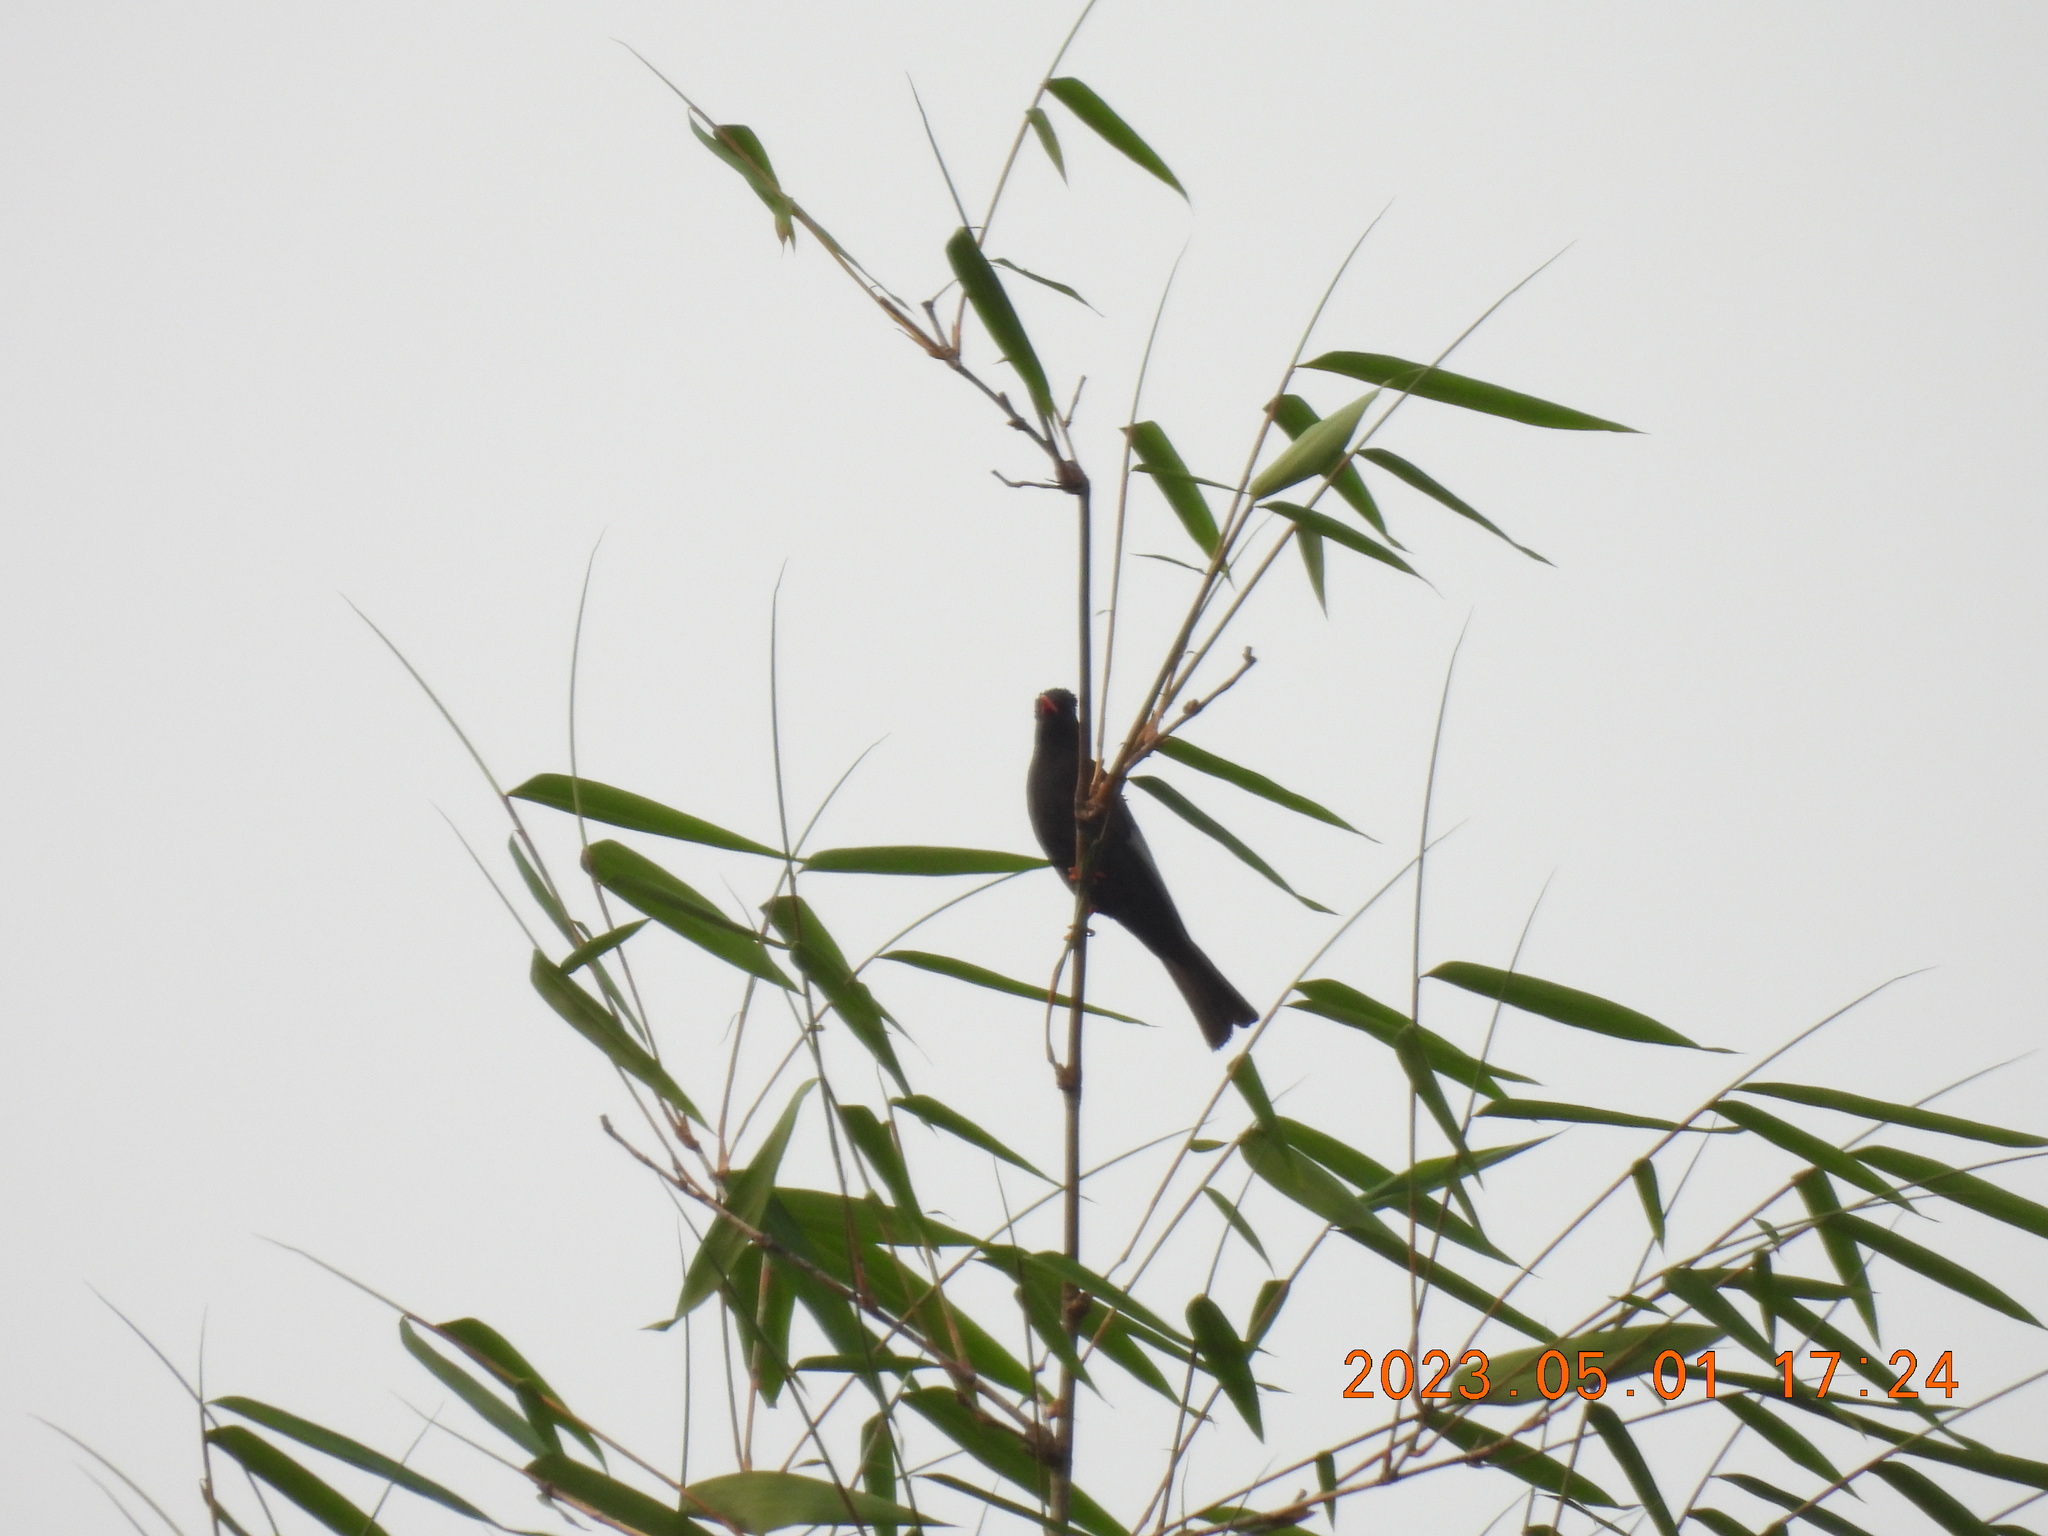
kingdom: Animalia
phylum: Chordata
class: Aves
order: Passeriformes
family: Pycnonotidae
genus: Hypsipetes
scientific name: Hypsipetes leucocephalus
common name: Black bulbul
